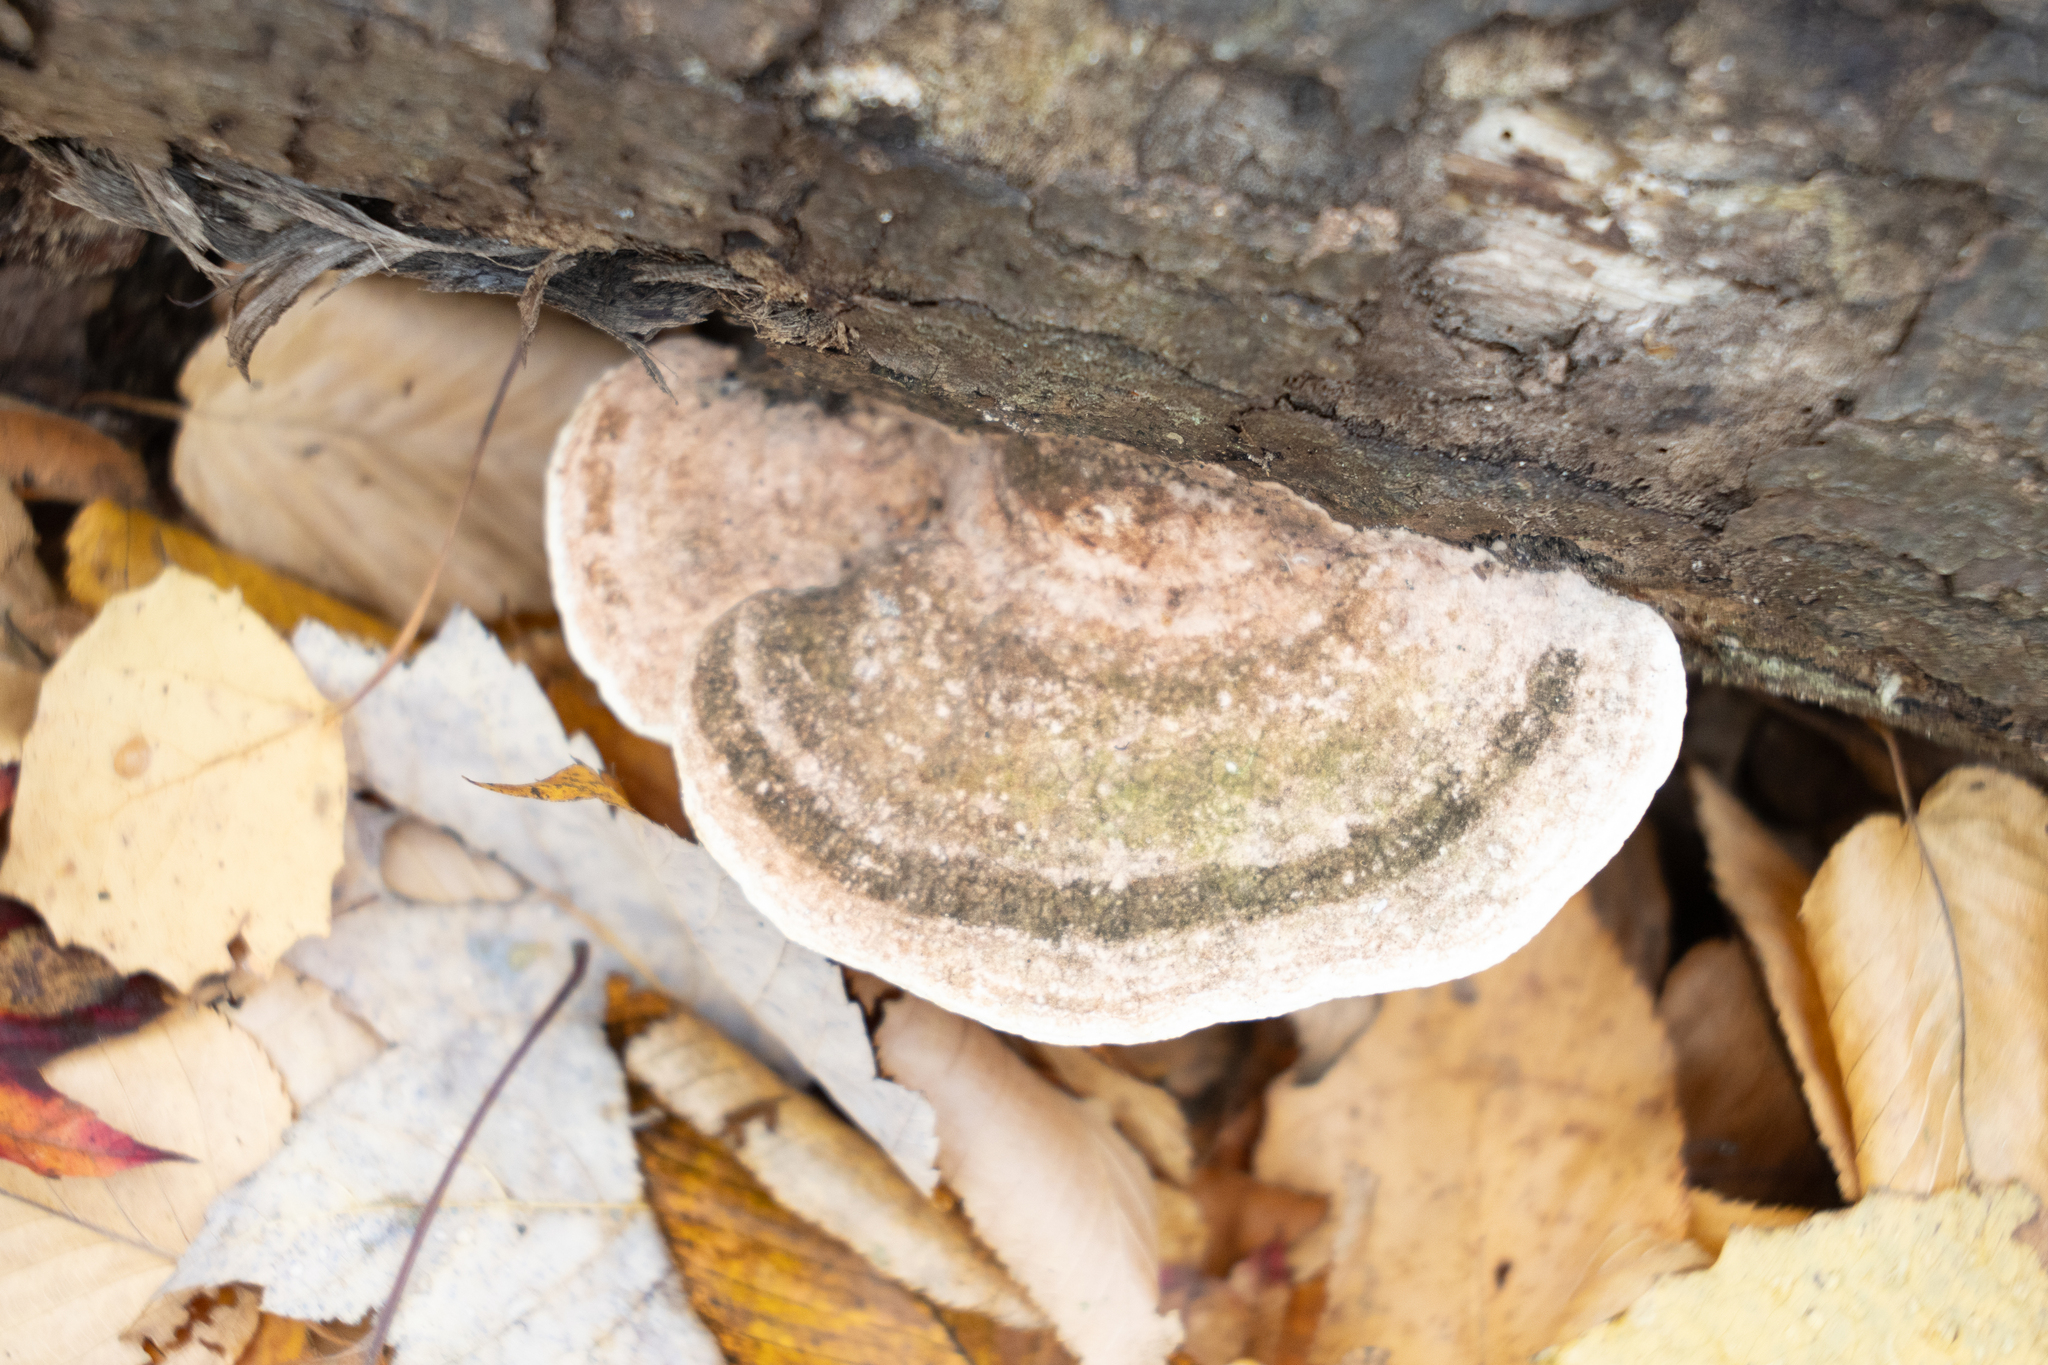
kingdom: Fungi
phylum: Basidiomycota
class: Agaricomycetes
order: Polyporales
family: Polyporaceae
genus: Trametes
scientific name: Trametes gibbosa
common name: Lumpy bracket
